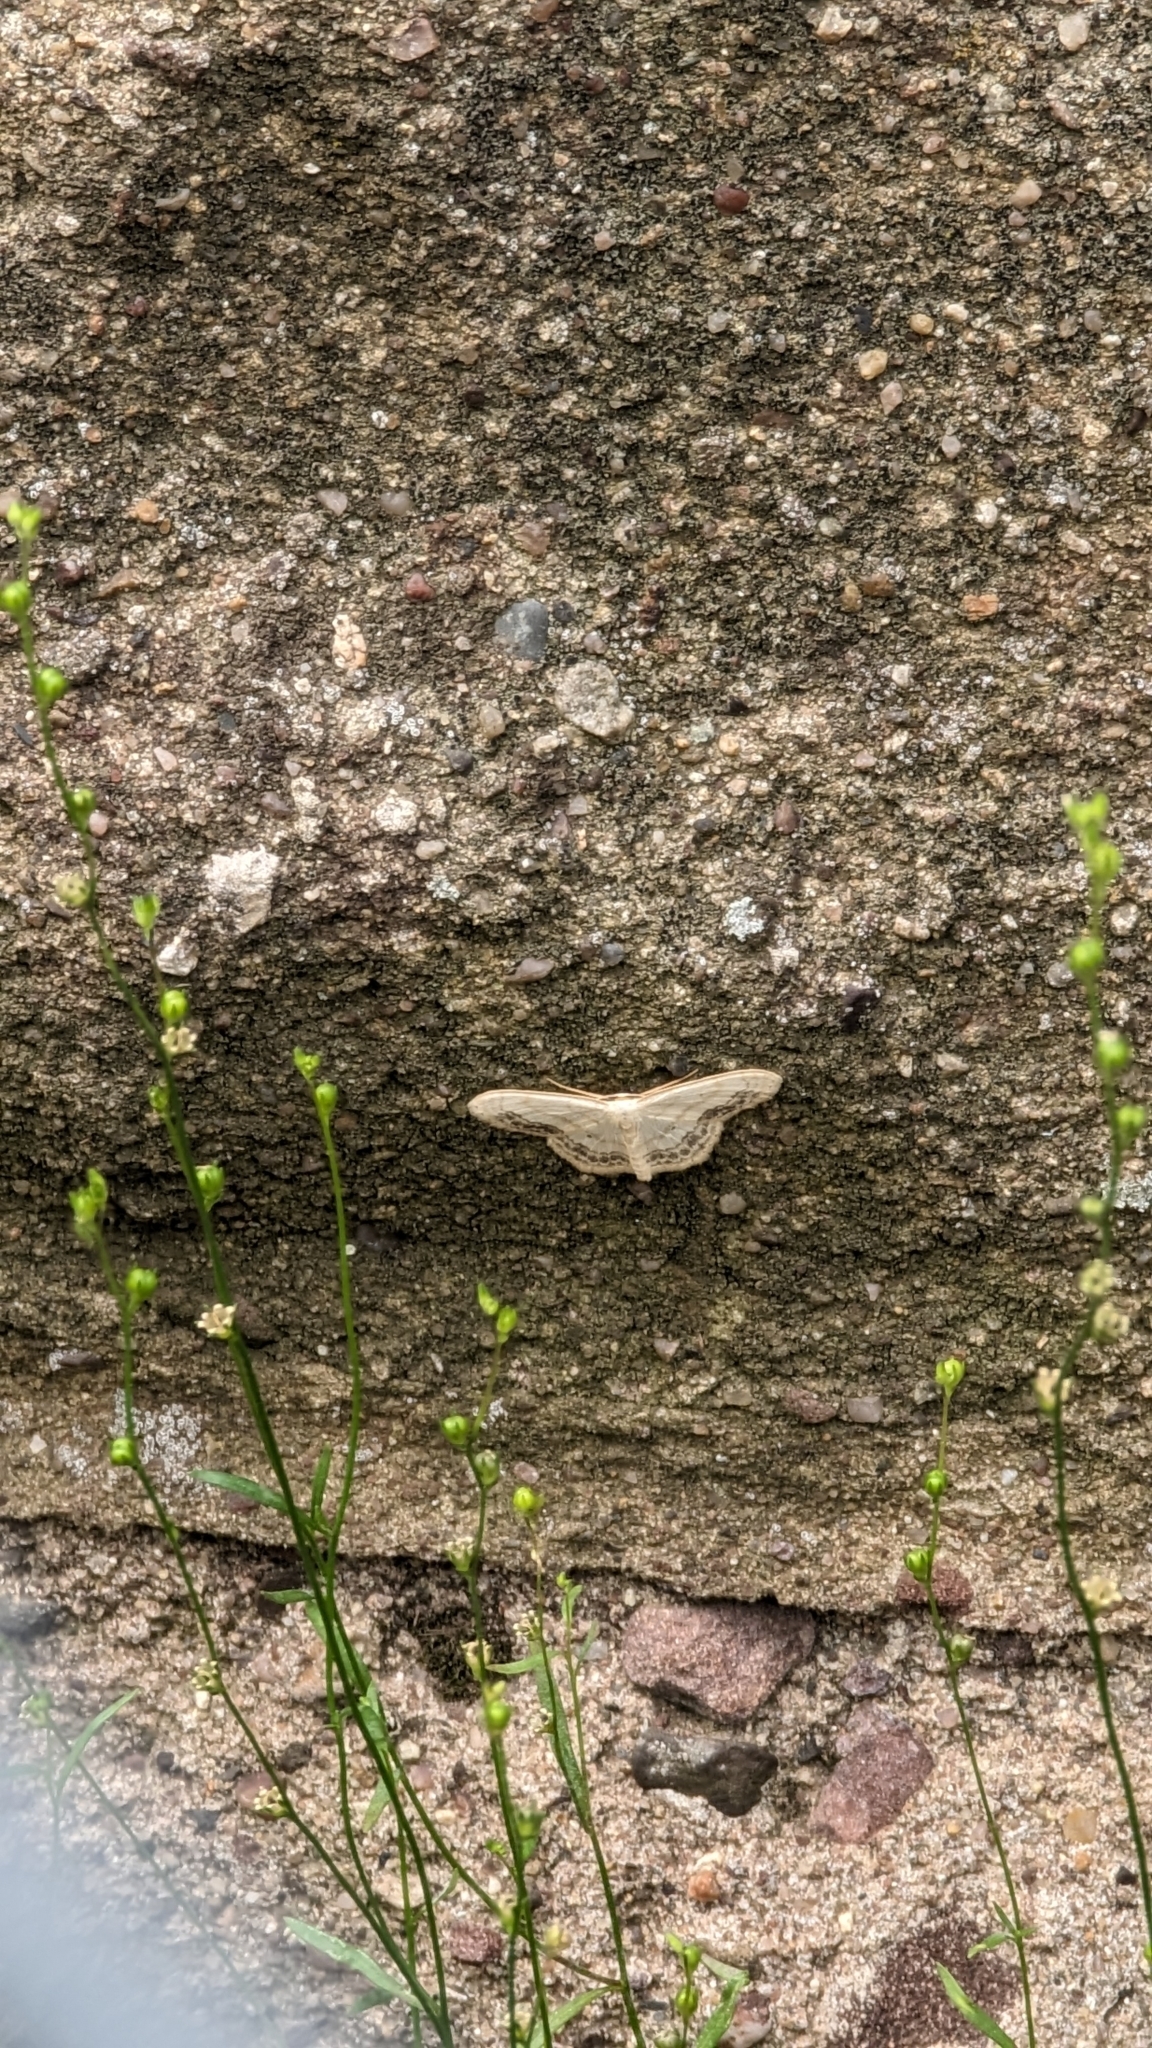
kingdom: Animalia
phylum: Arthropoda
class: Insecta
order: Lepidoptera
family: Geometridae
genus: Scopula
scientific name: Scopula limboundata
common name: Large lace border
